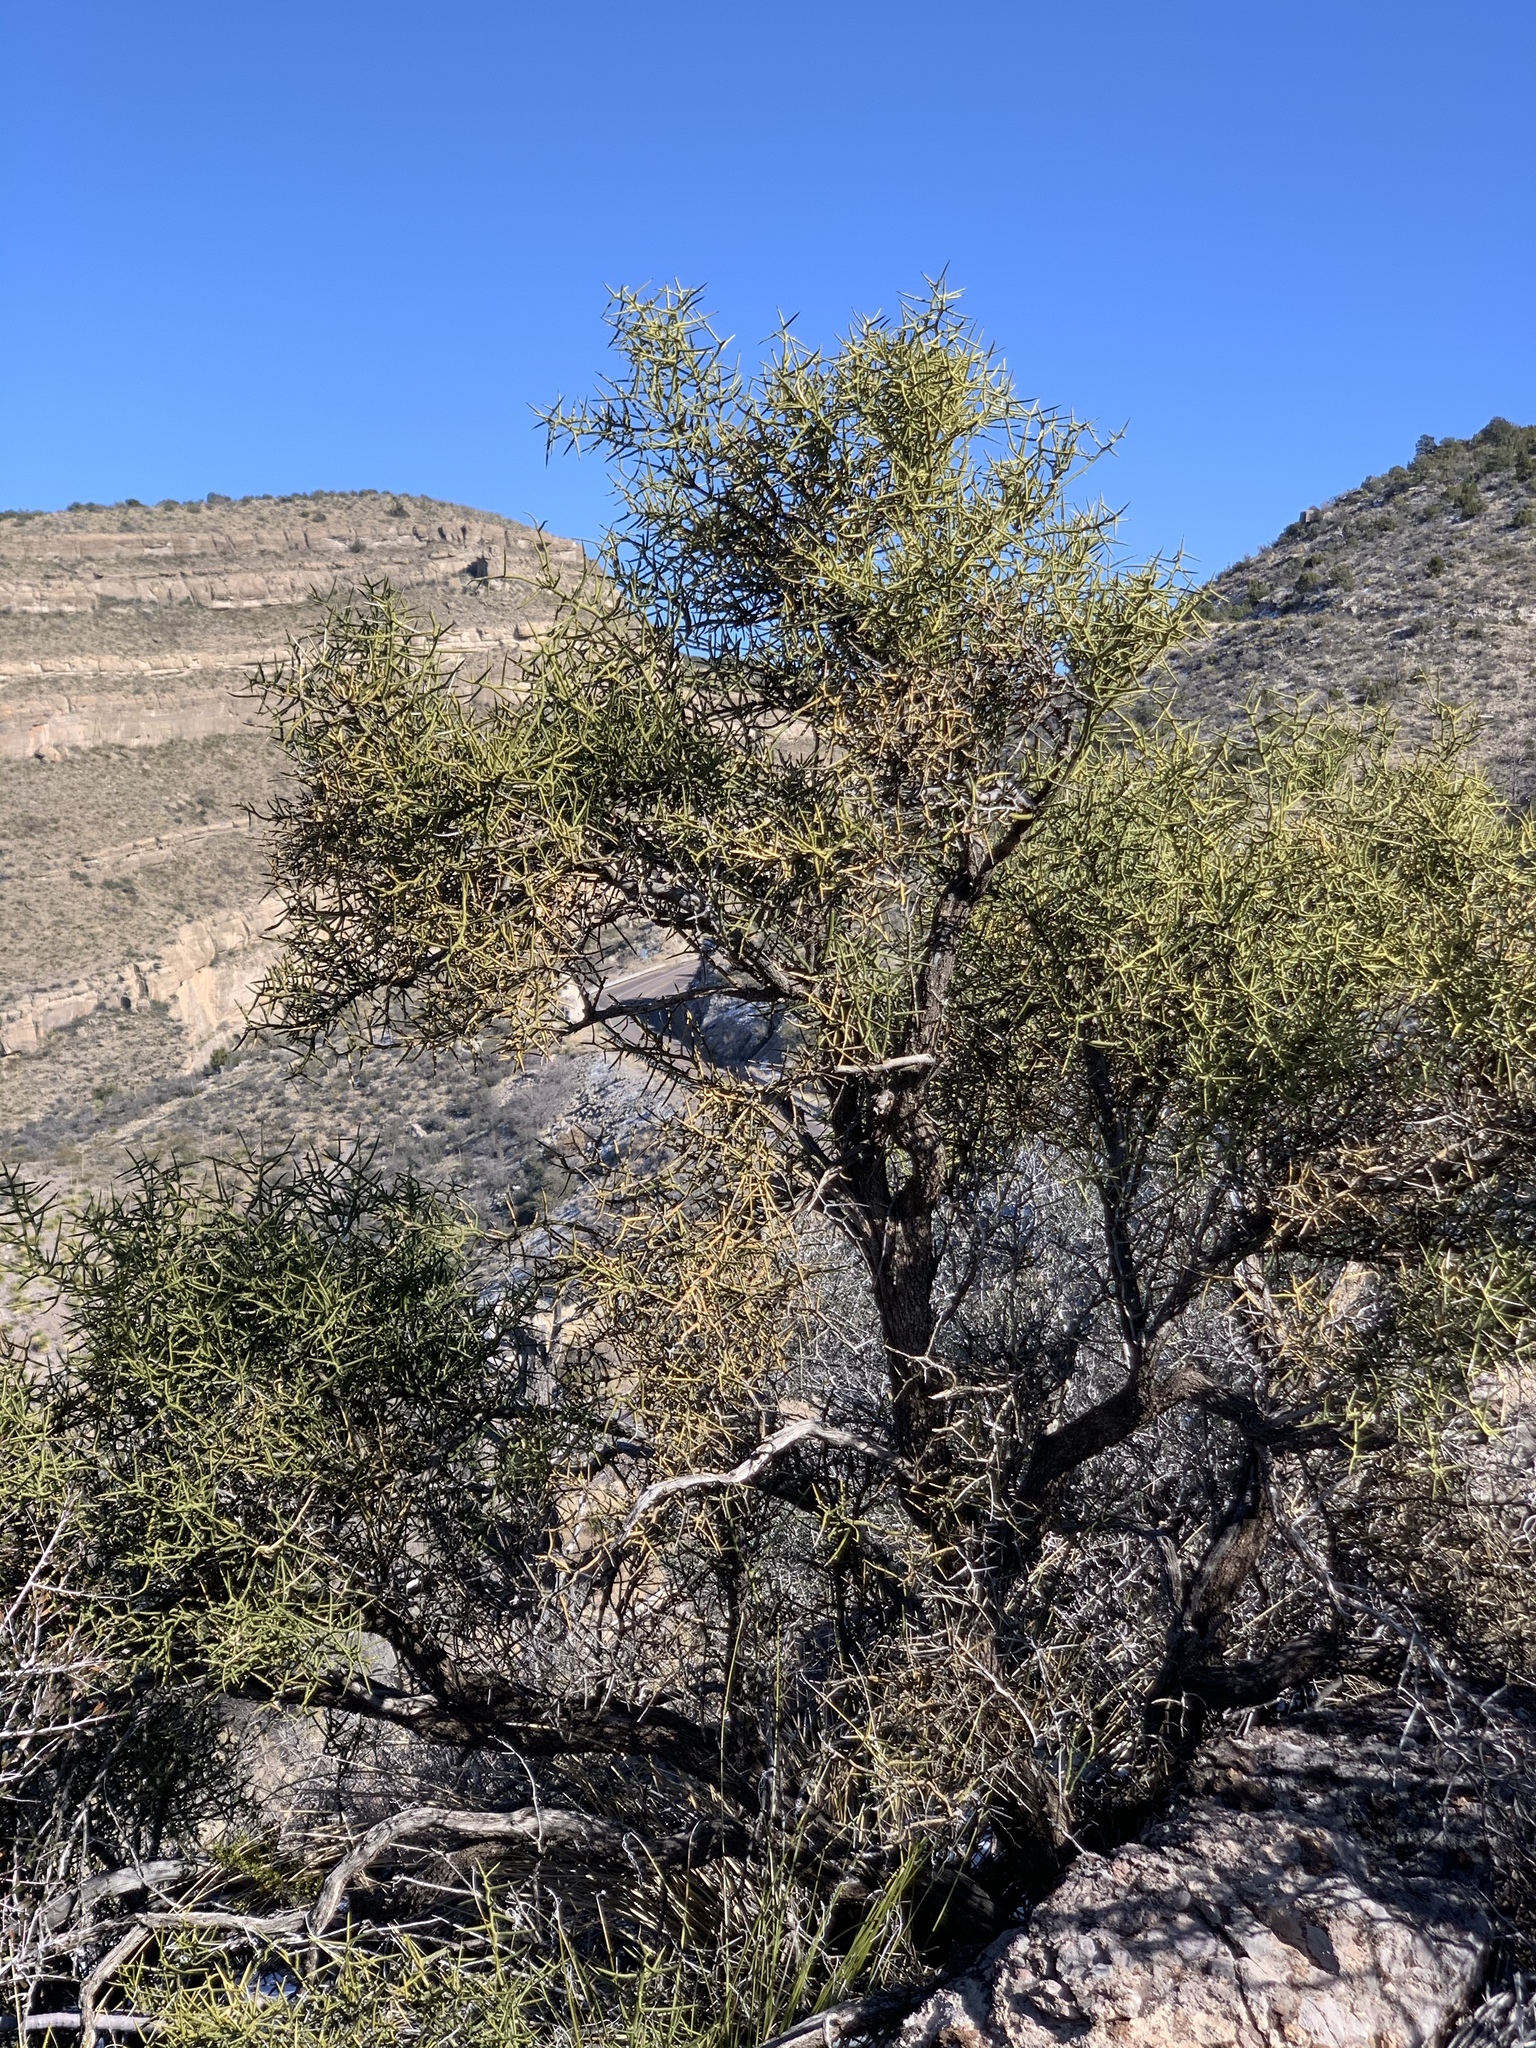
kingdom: Plantae
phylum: Tracheophyta
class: Magnoliopsida
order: Brassicales
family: Koeberliniaceae
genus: Koeberlinia
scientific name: Koeberlinia spinosa
